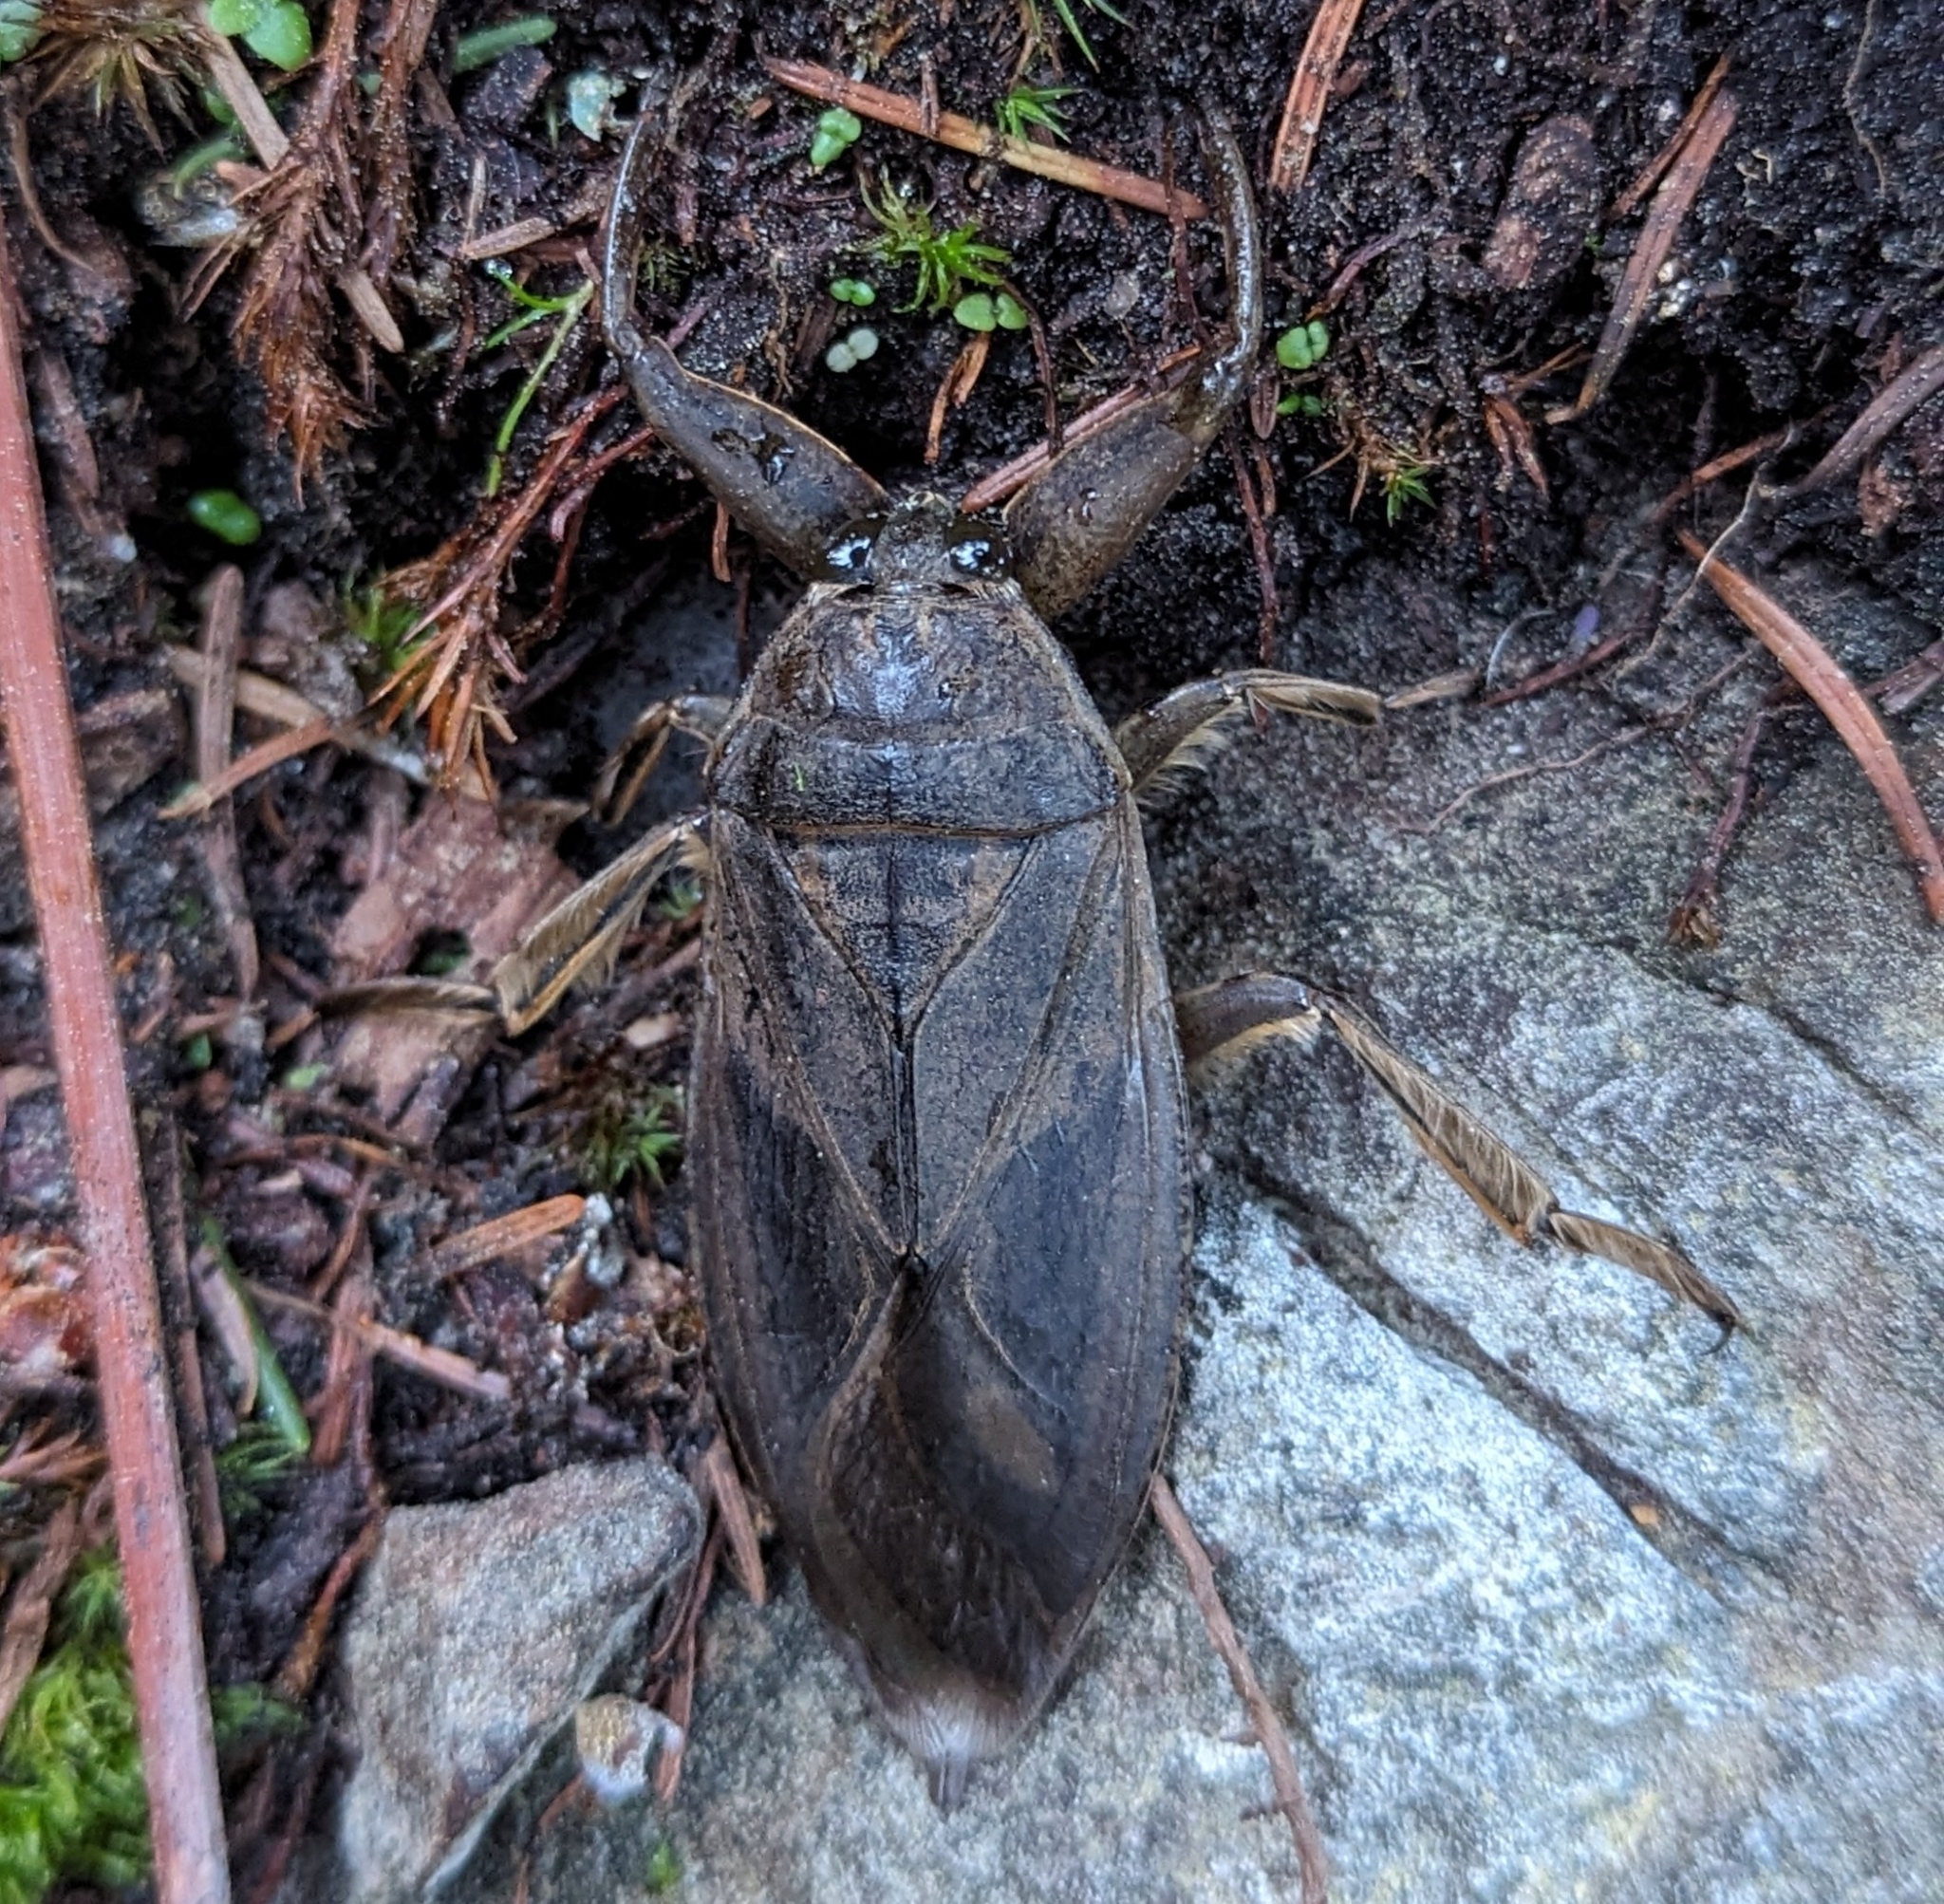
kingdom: Animalia
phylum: Arthropoda
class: Insecta
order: Hemiptera
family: Belostomatidae
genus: Lethocerus
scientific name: Lethocerus americanus
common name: Giant water bug
